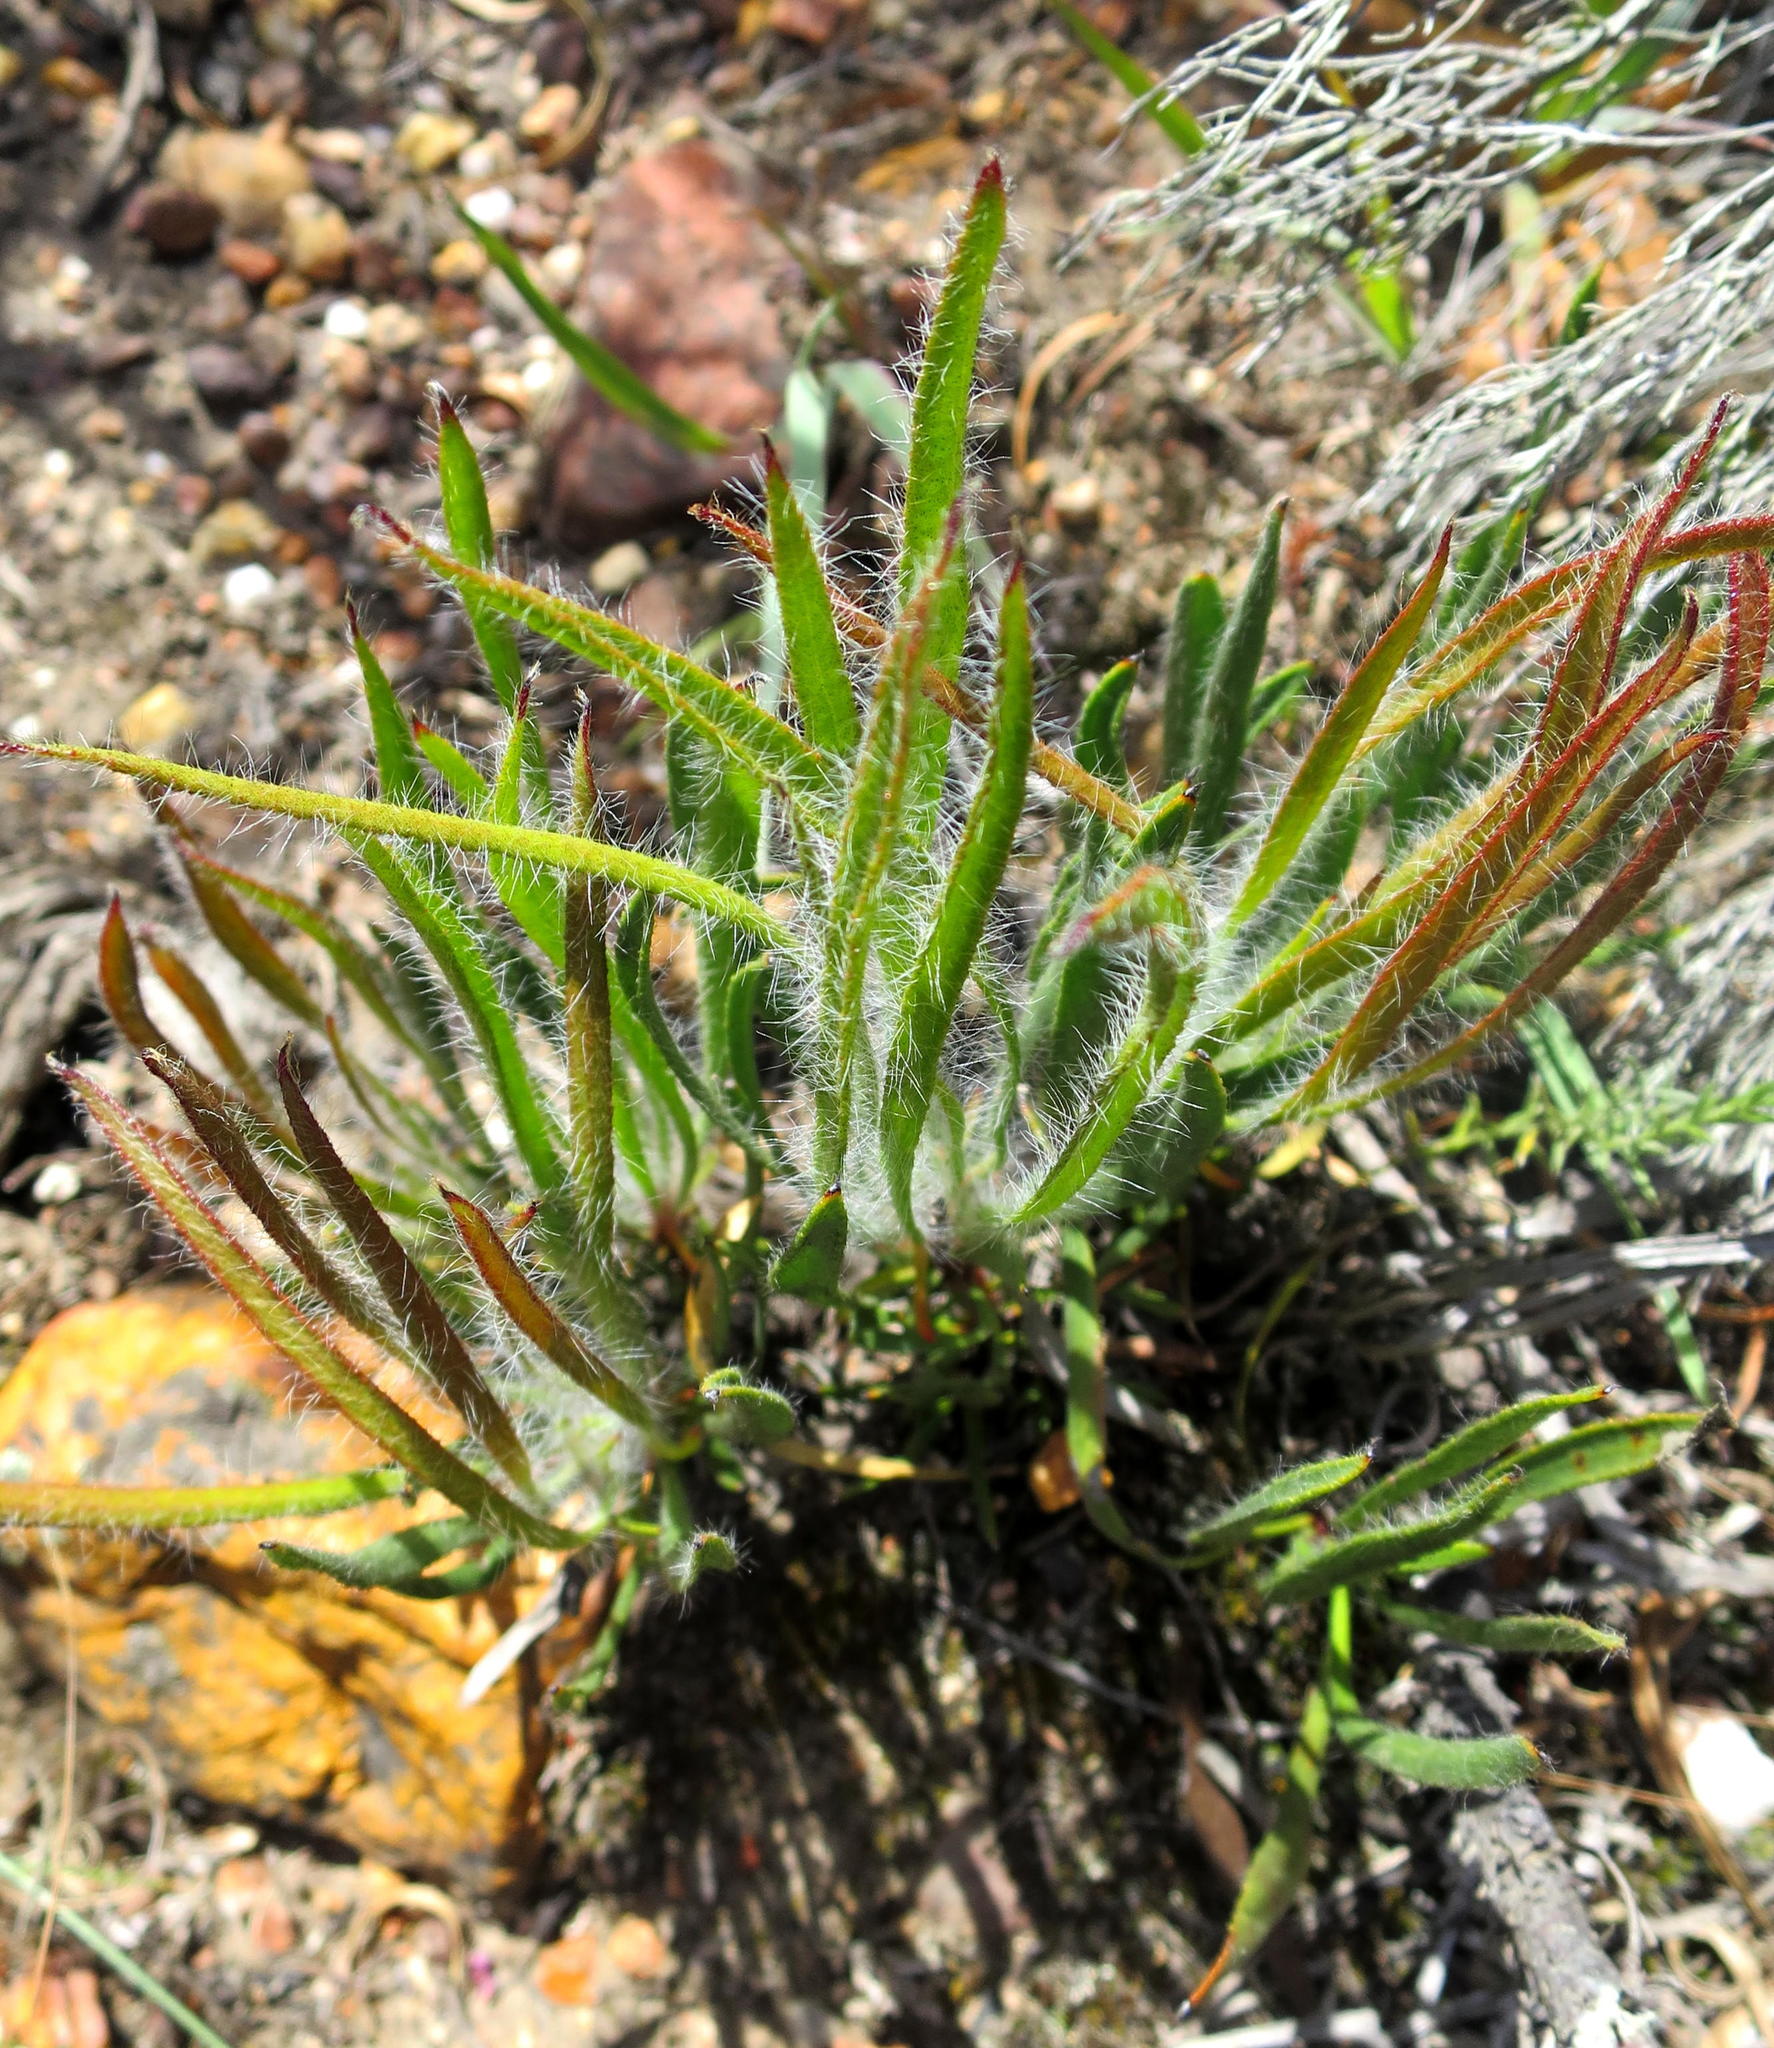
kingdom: Plantae
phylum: Tracheophyta
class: Magnoliopsida
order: Proteales
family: Proteaceae
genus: Protea
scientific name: Protea denticulata
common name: Tooth-leaf sugarbush
